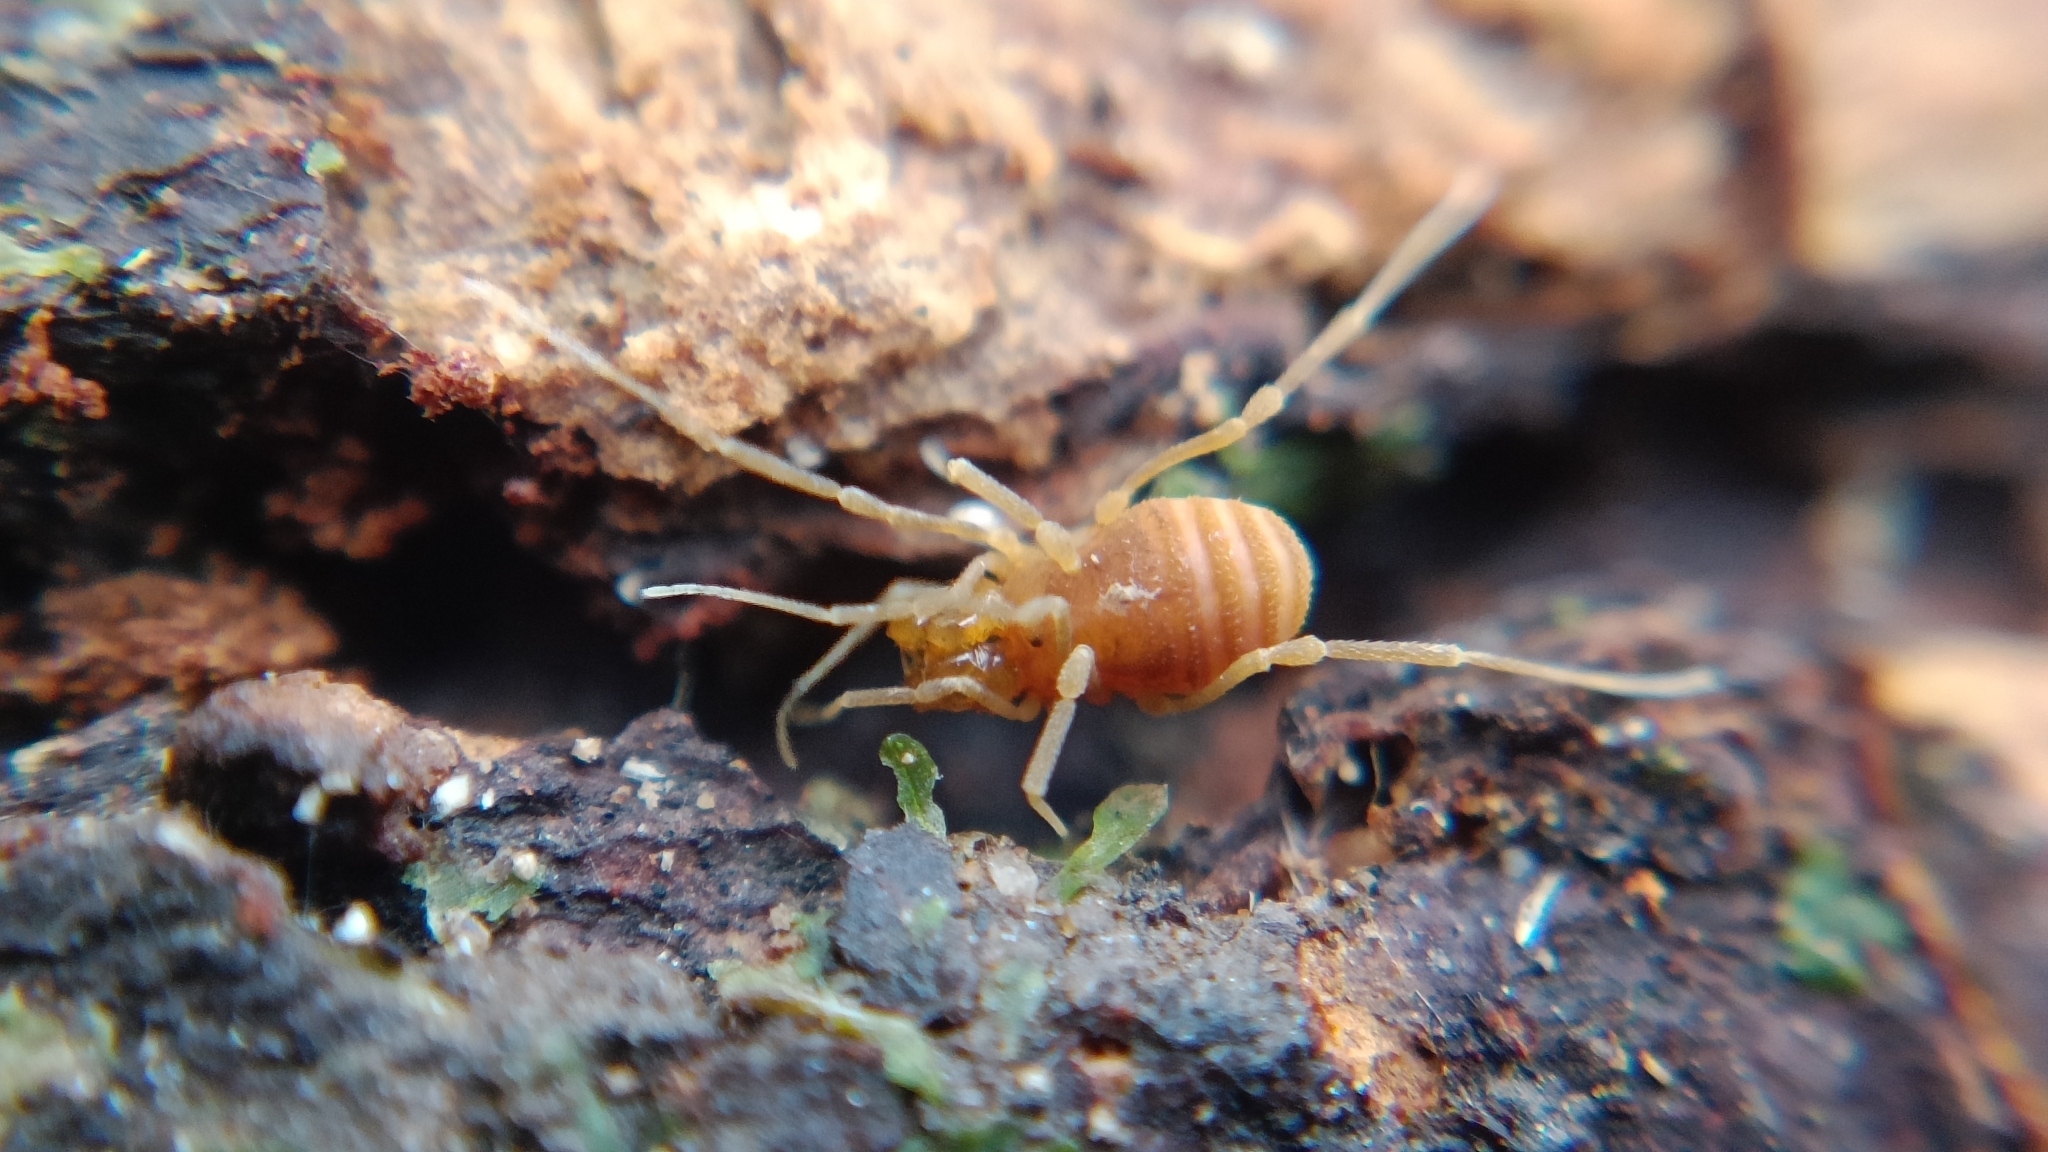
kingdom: Animalia
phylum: Arthropoda
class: Arachnida
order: Opiliones
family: Cladonychiidae
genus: Holoscotolemon
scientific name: Holoscotolemon querilhaci
